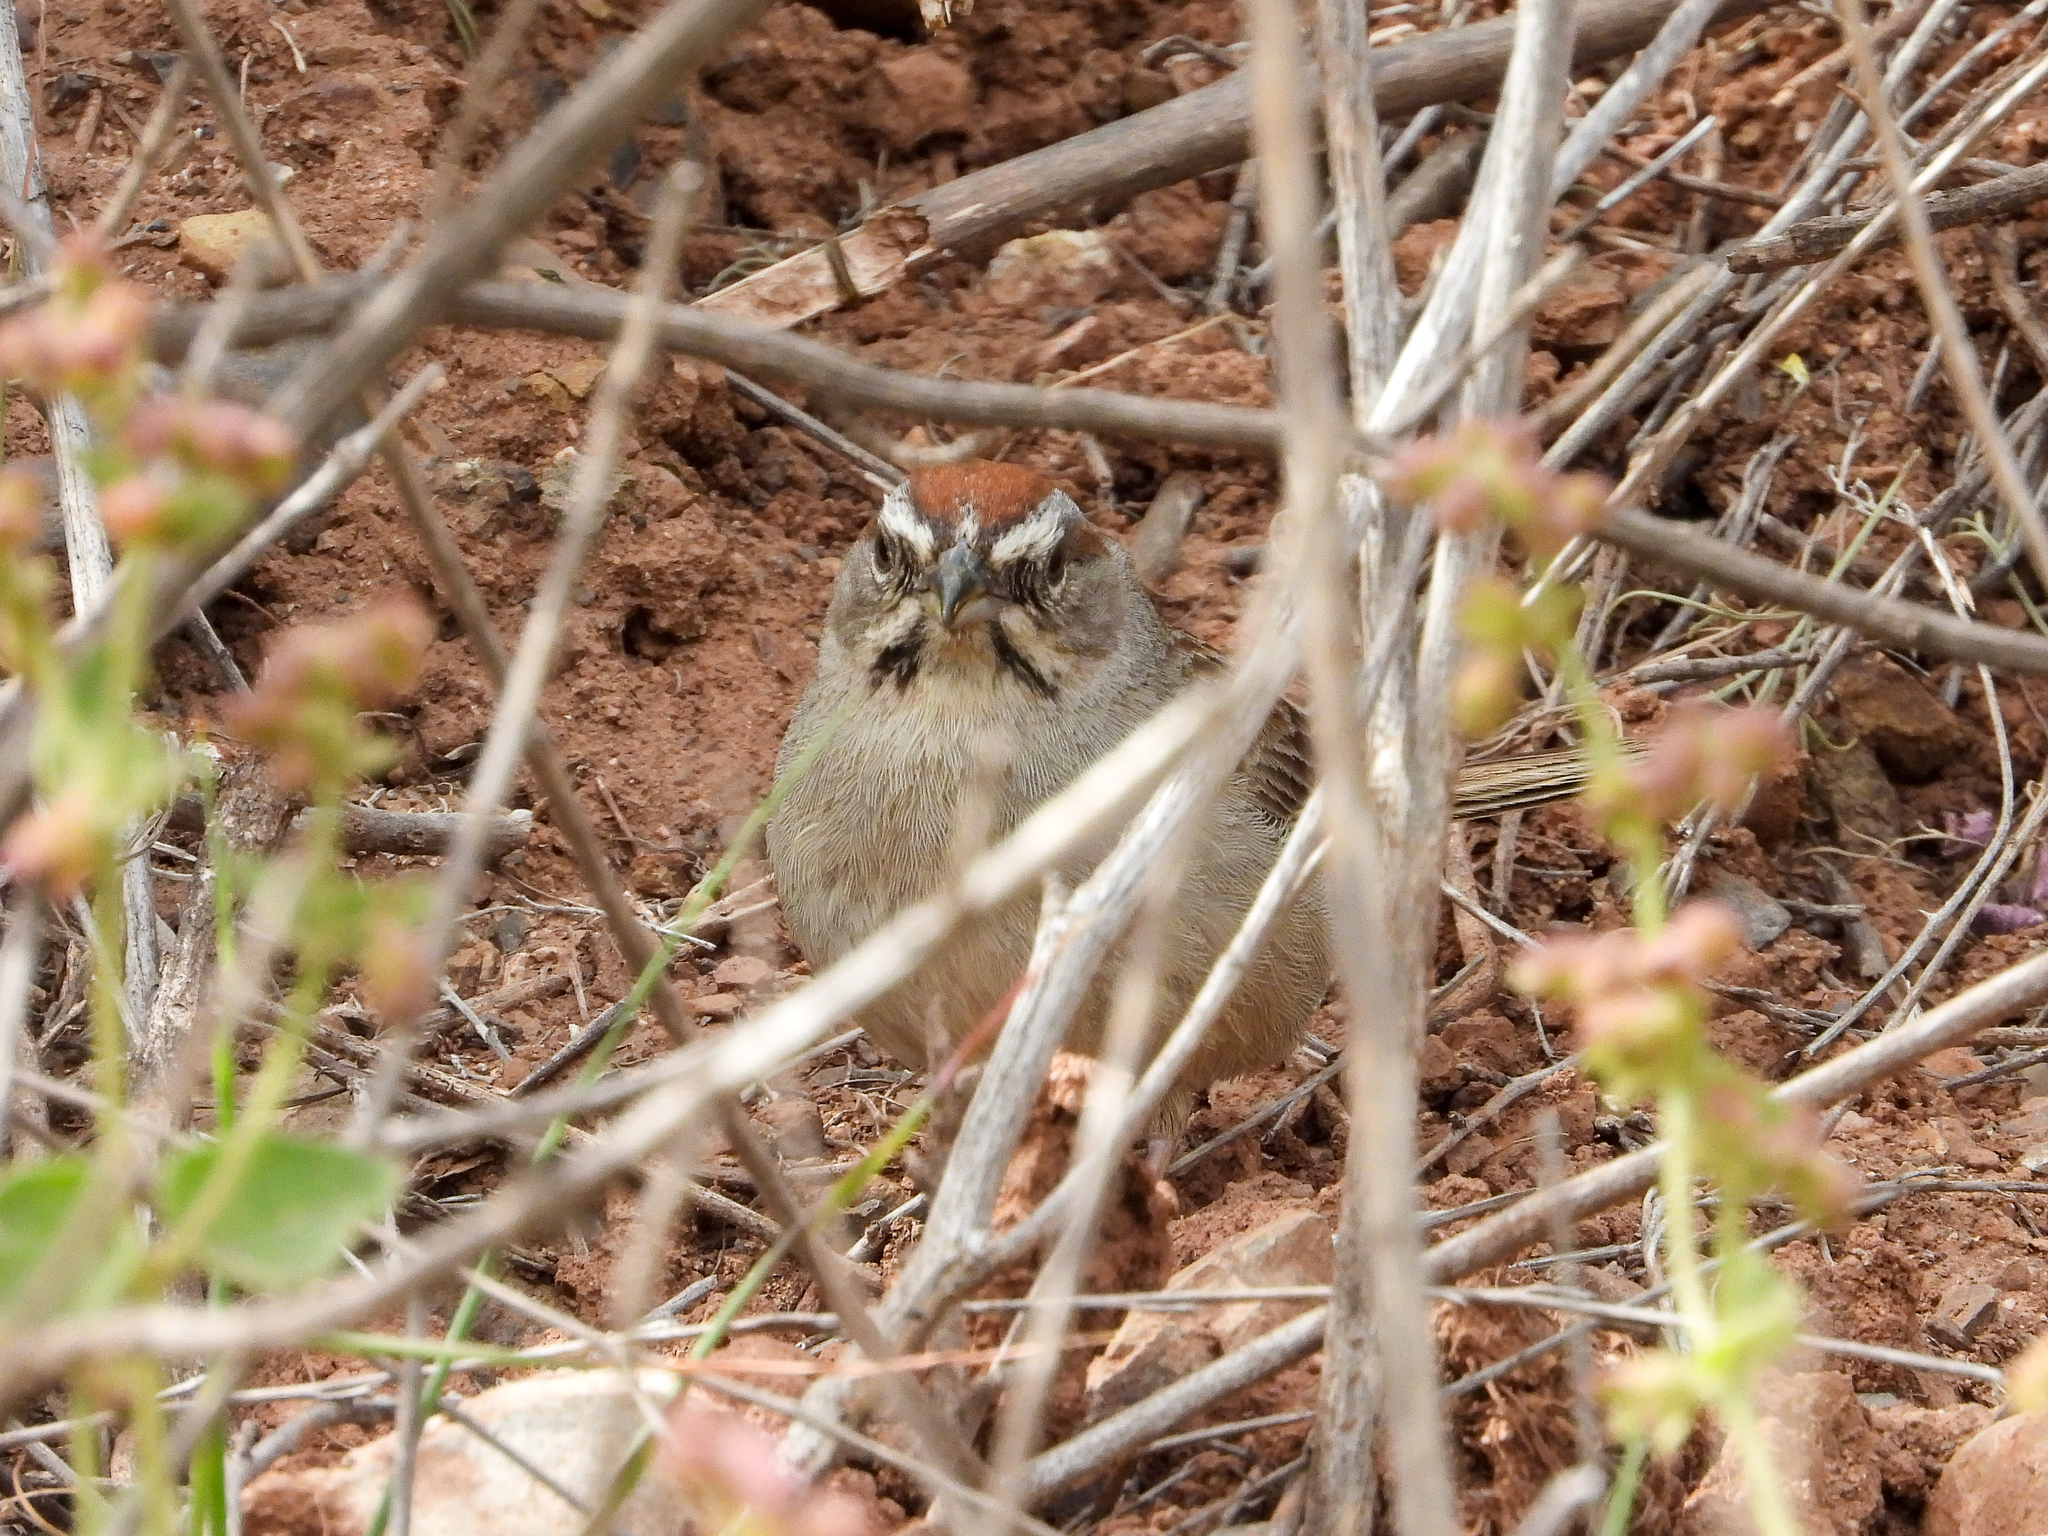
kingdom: Animalia
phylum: Chordata
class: Aves
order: Passeriformes
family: Passerellidae
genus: Aimophila
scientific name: Aimophila ruficeps
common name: Rufous-crowned sparrow
